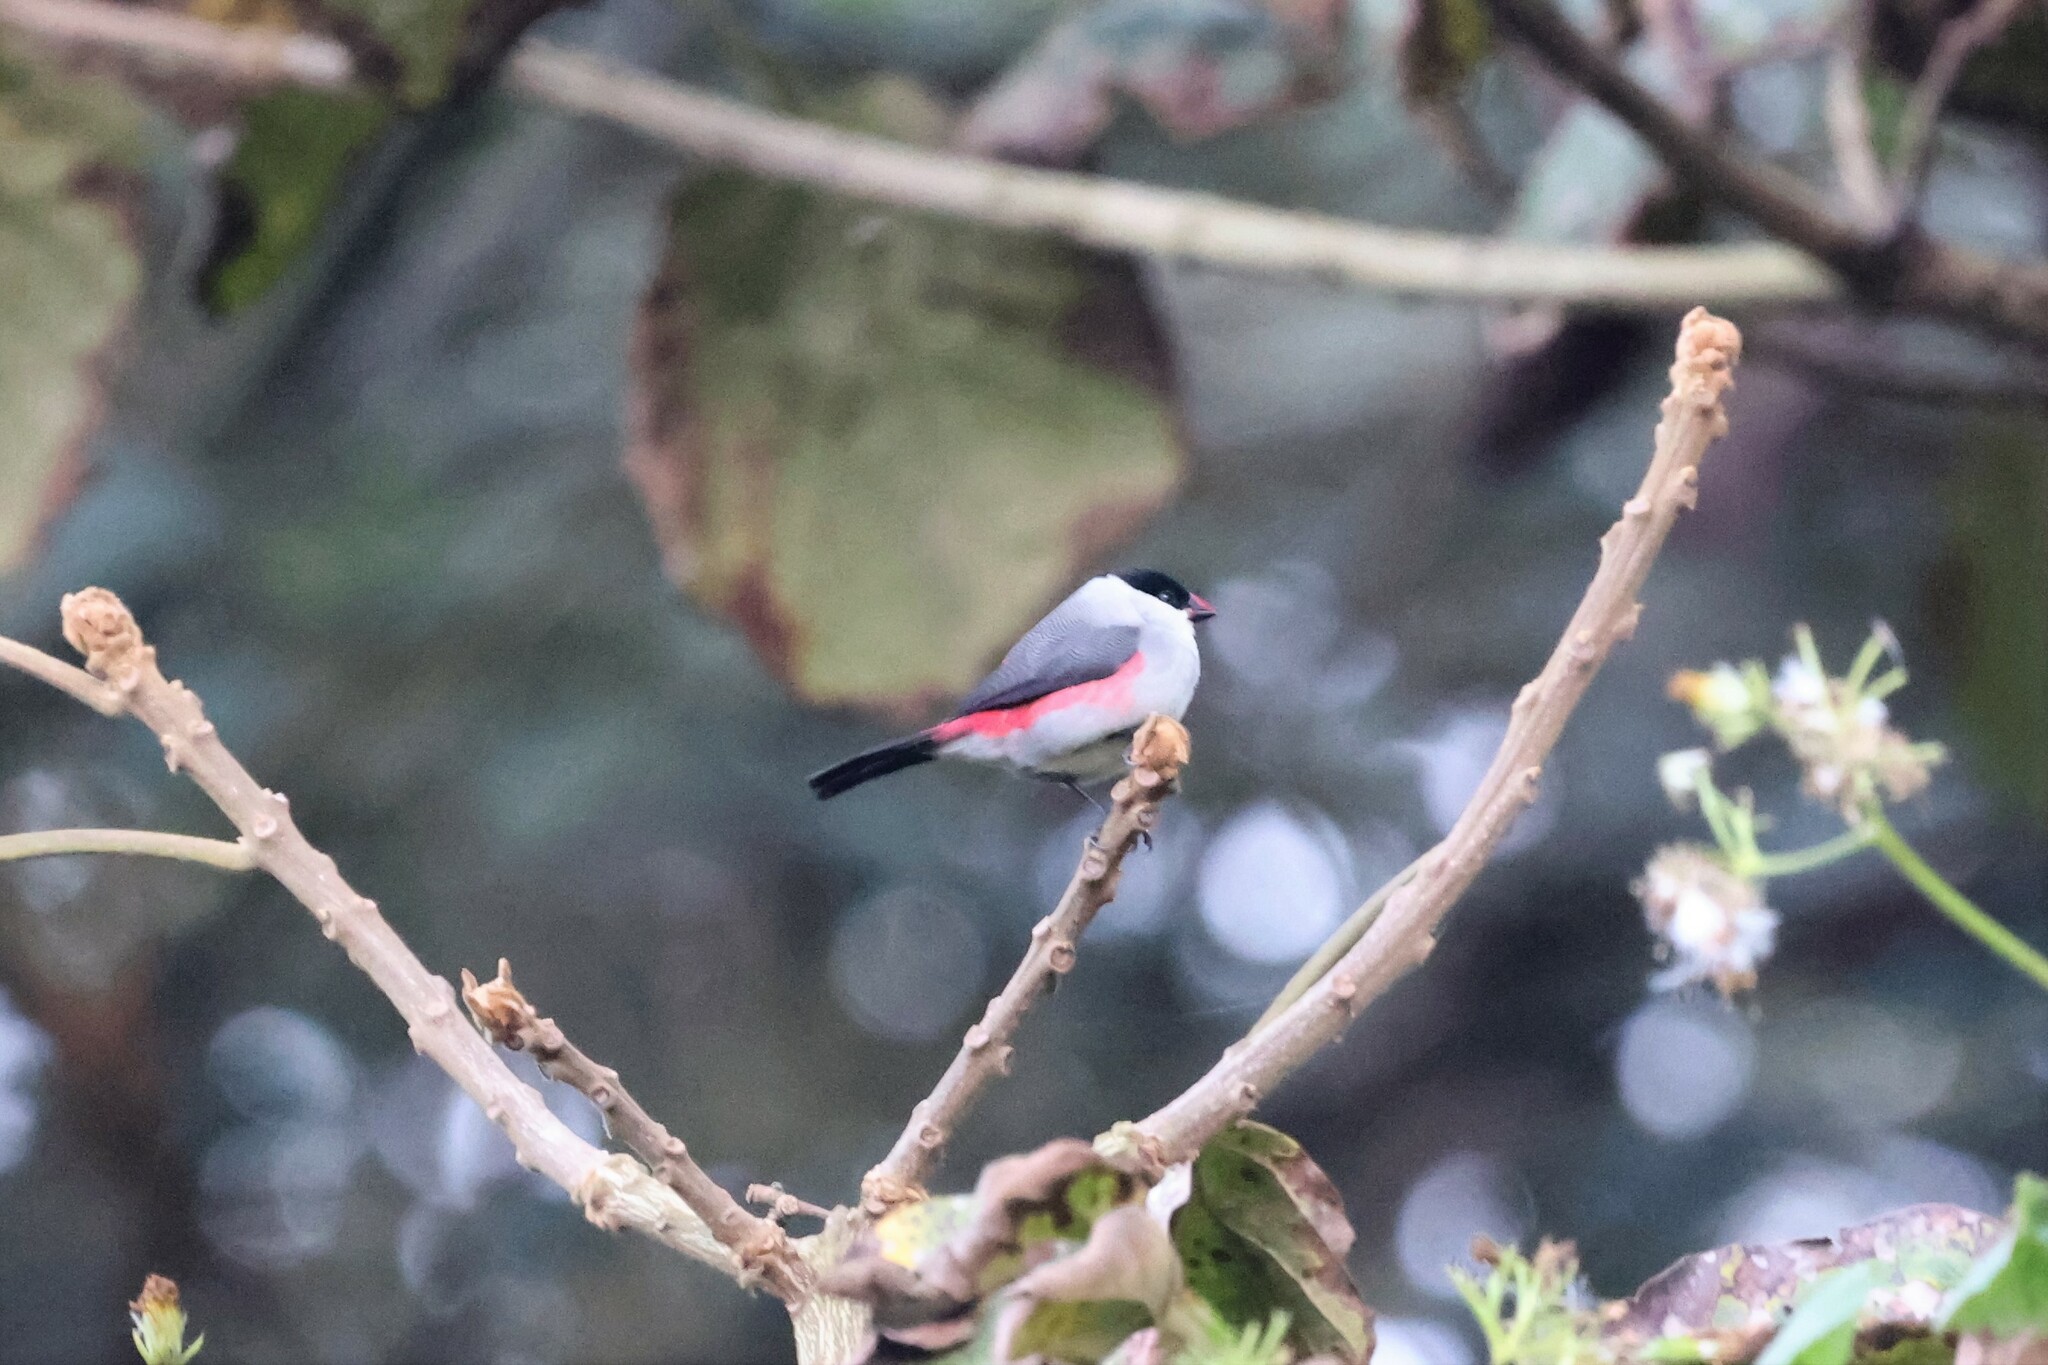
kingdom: Animalia
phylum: Chordata
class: Aves
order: Passeriformes
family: Estrildidae
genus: Estrilda
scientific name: Estrilda nonnula
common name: Black-crowned waxbill
